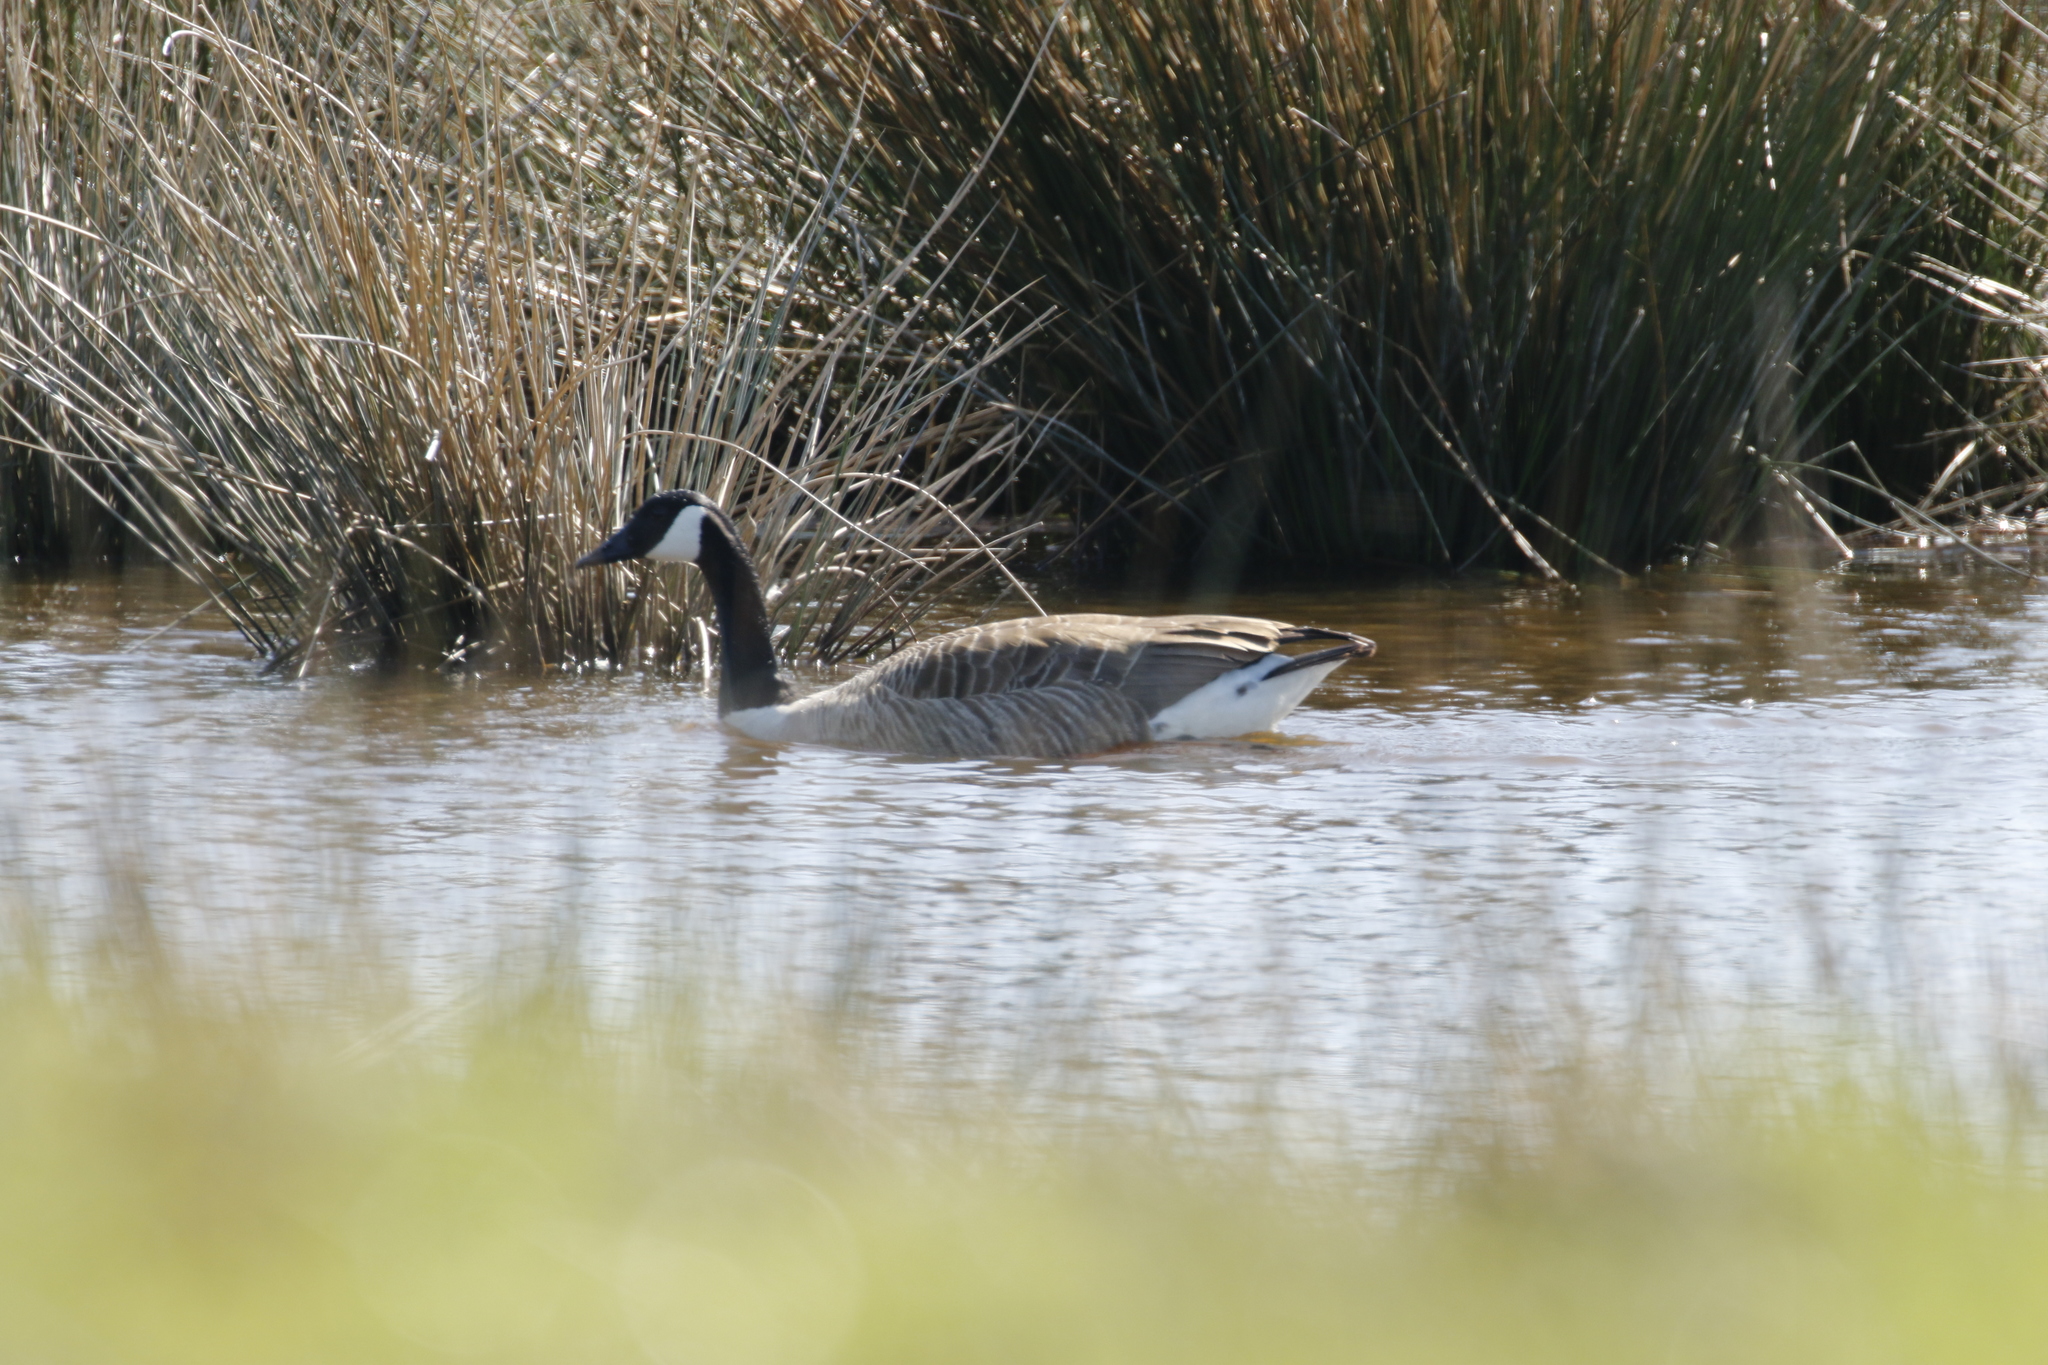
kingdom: Animalia
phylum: Chordata
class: Aves
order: Anseriformes
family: Anatidae
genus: Branta
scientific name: Branta canadensis
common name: Canada goose
